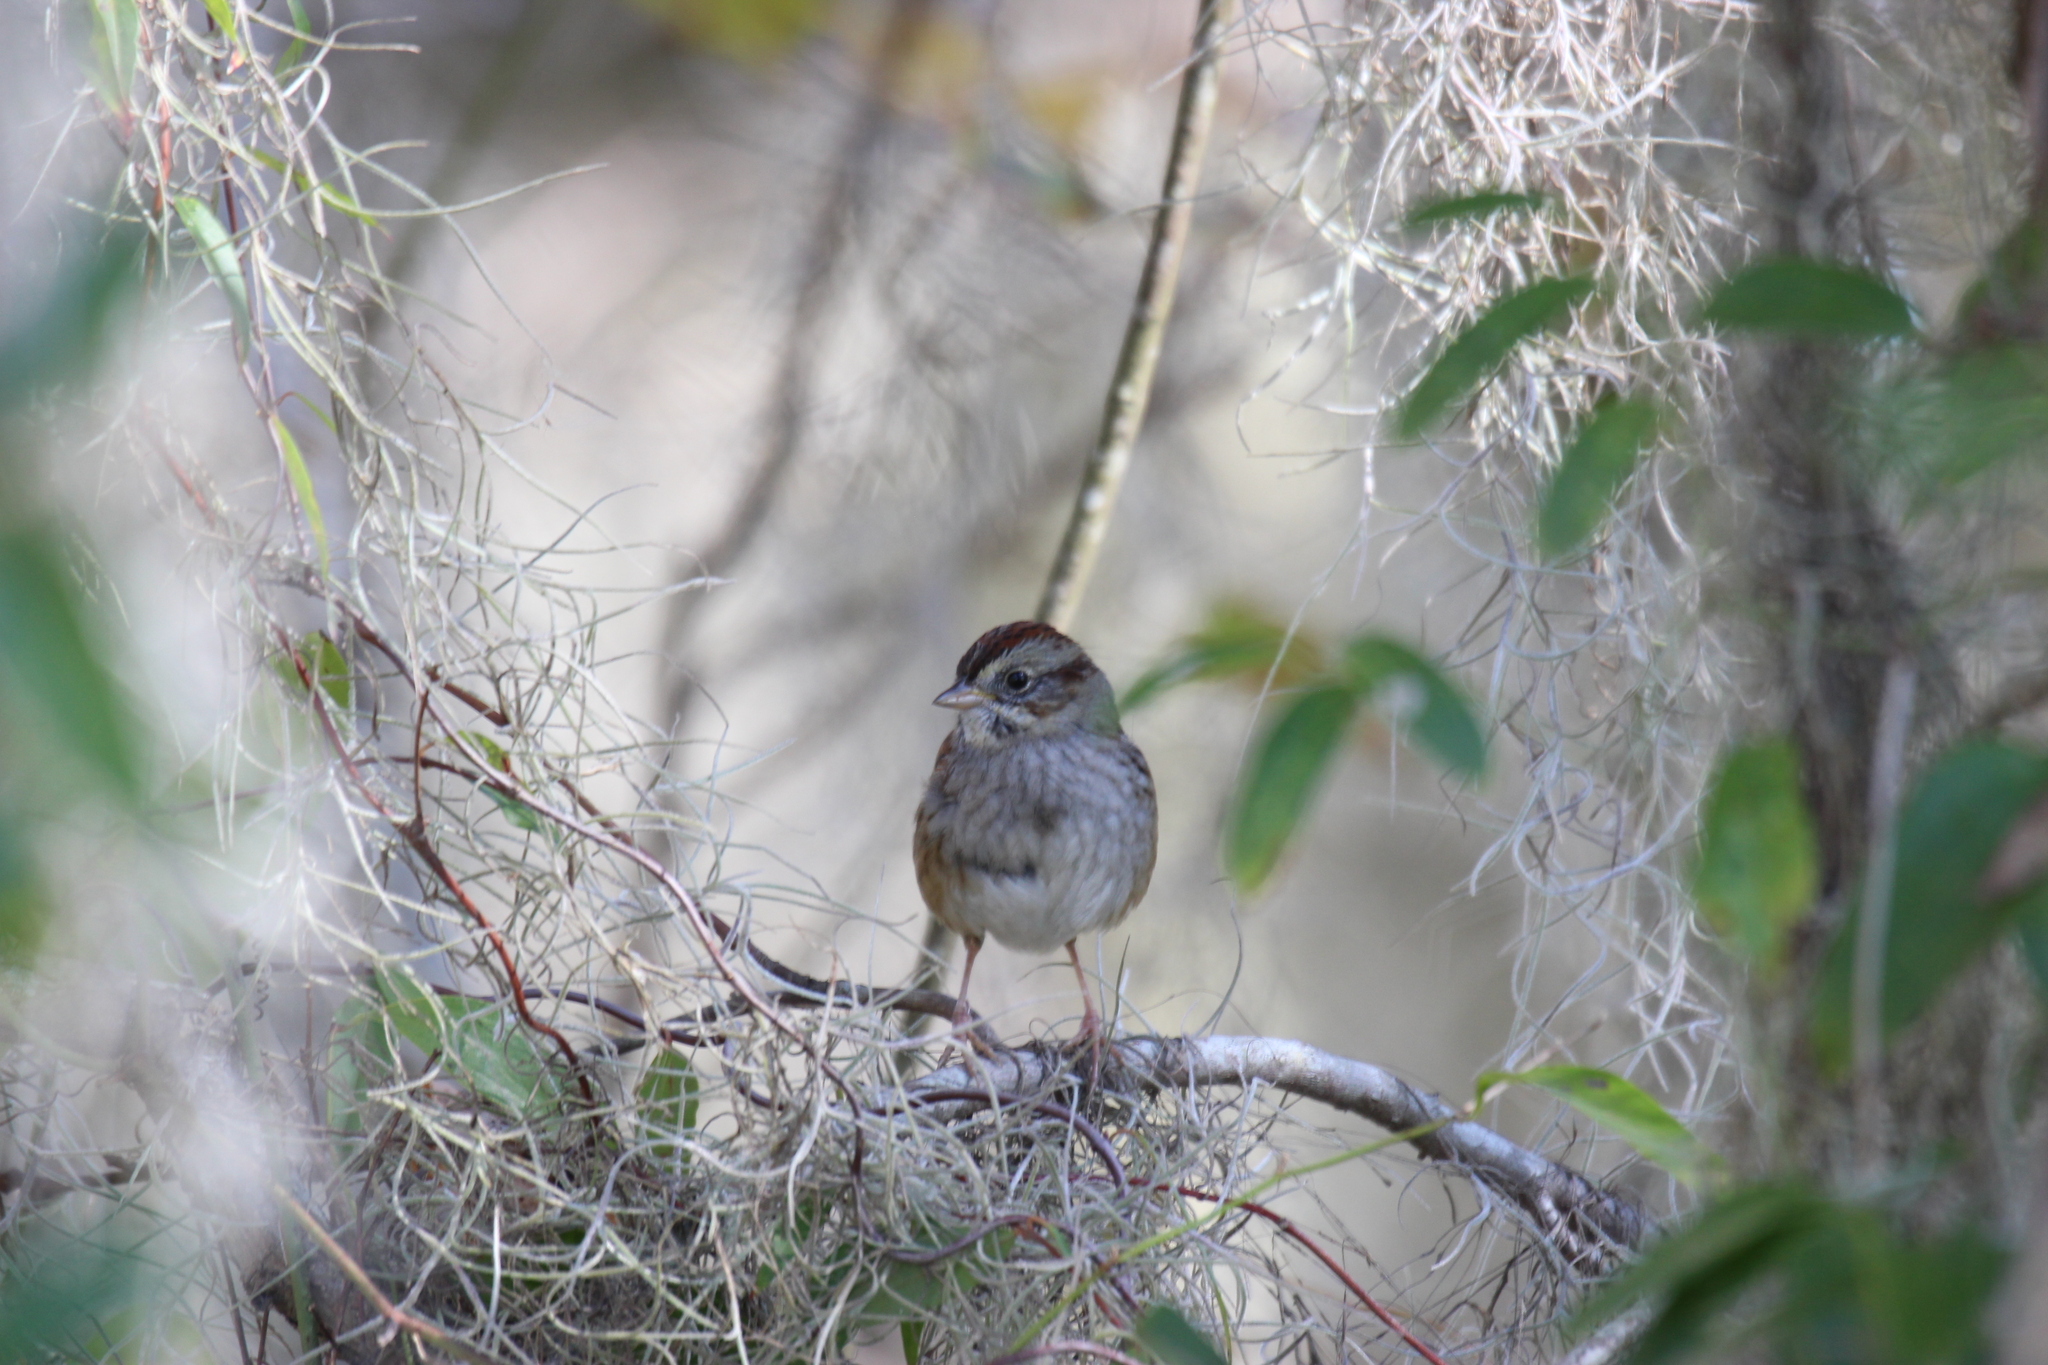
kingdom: Animalia
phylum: Chordata
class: Aves
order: Passeriformes
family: Passerellidae
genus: Melospiza
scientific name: Melospiza georgiana
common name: Swamp sparrow
